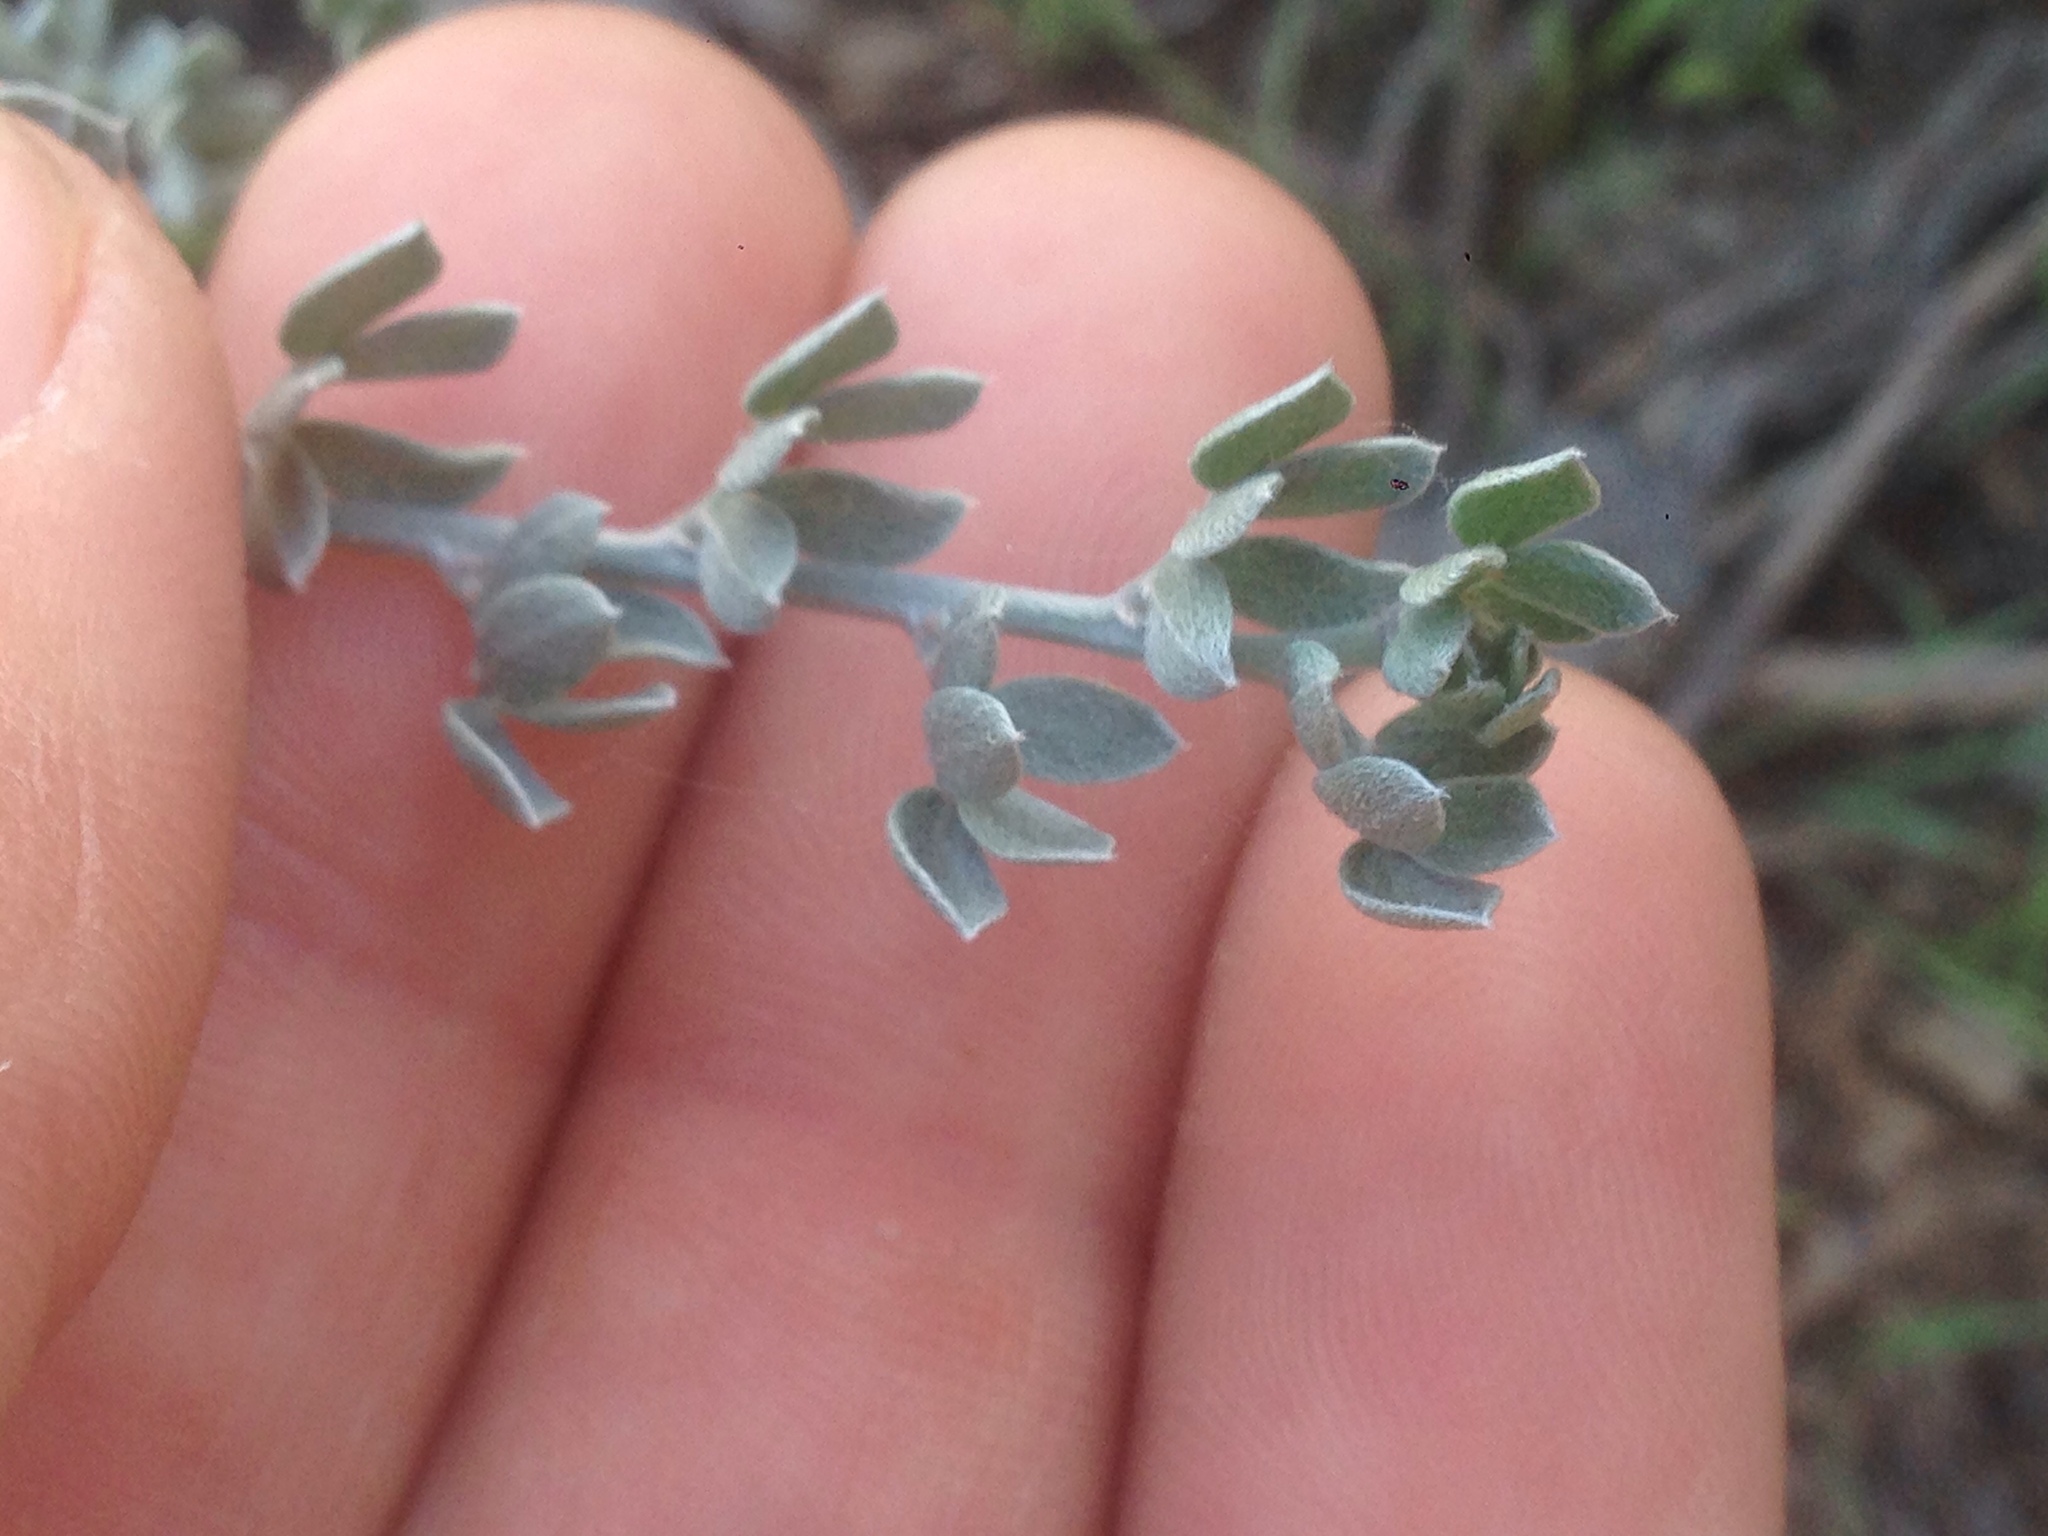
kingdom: Plantae
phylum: Tracheophyta
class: Magnoliopsida
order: Fabales
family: Fabaceae
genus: Acmispon
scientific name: Acmispon argophyllus
